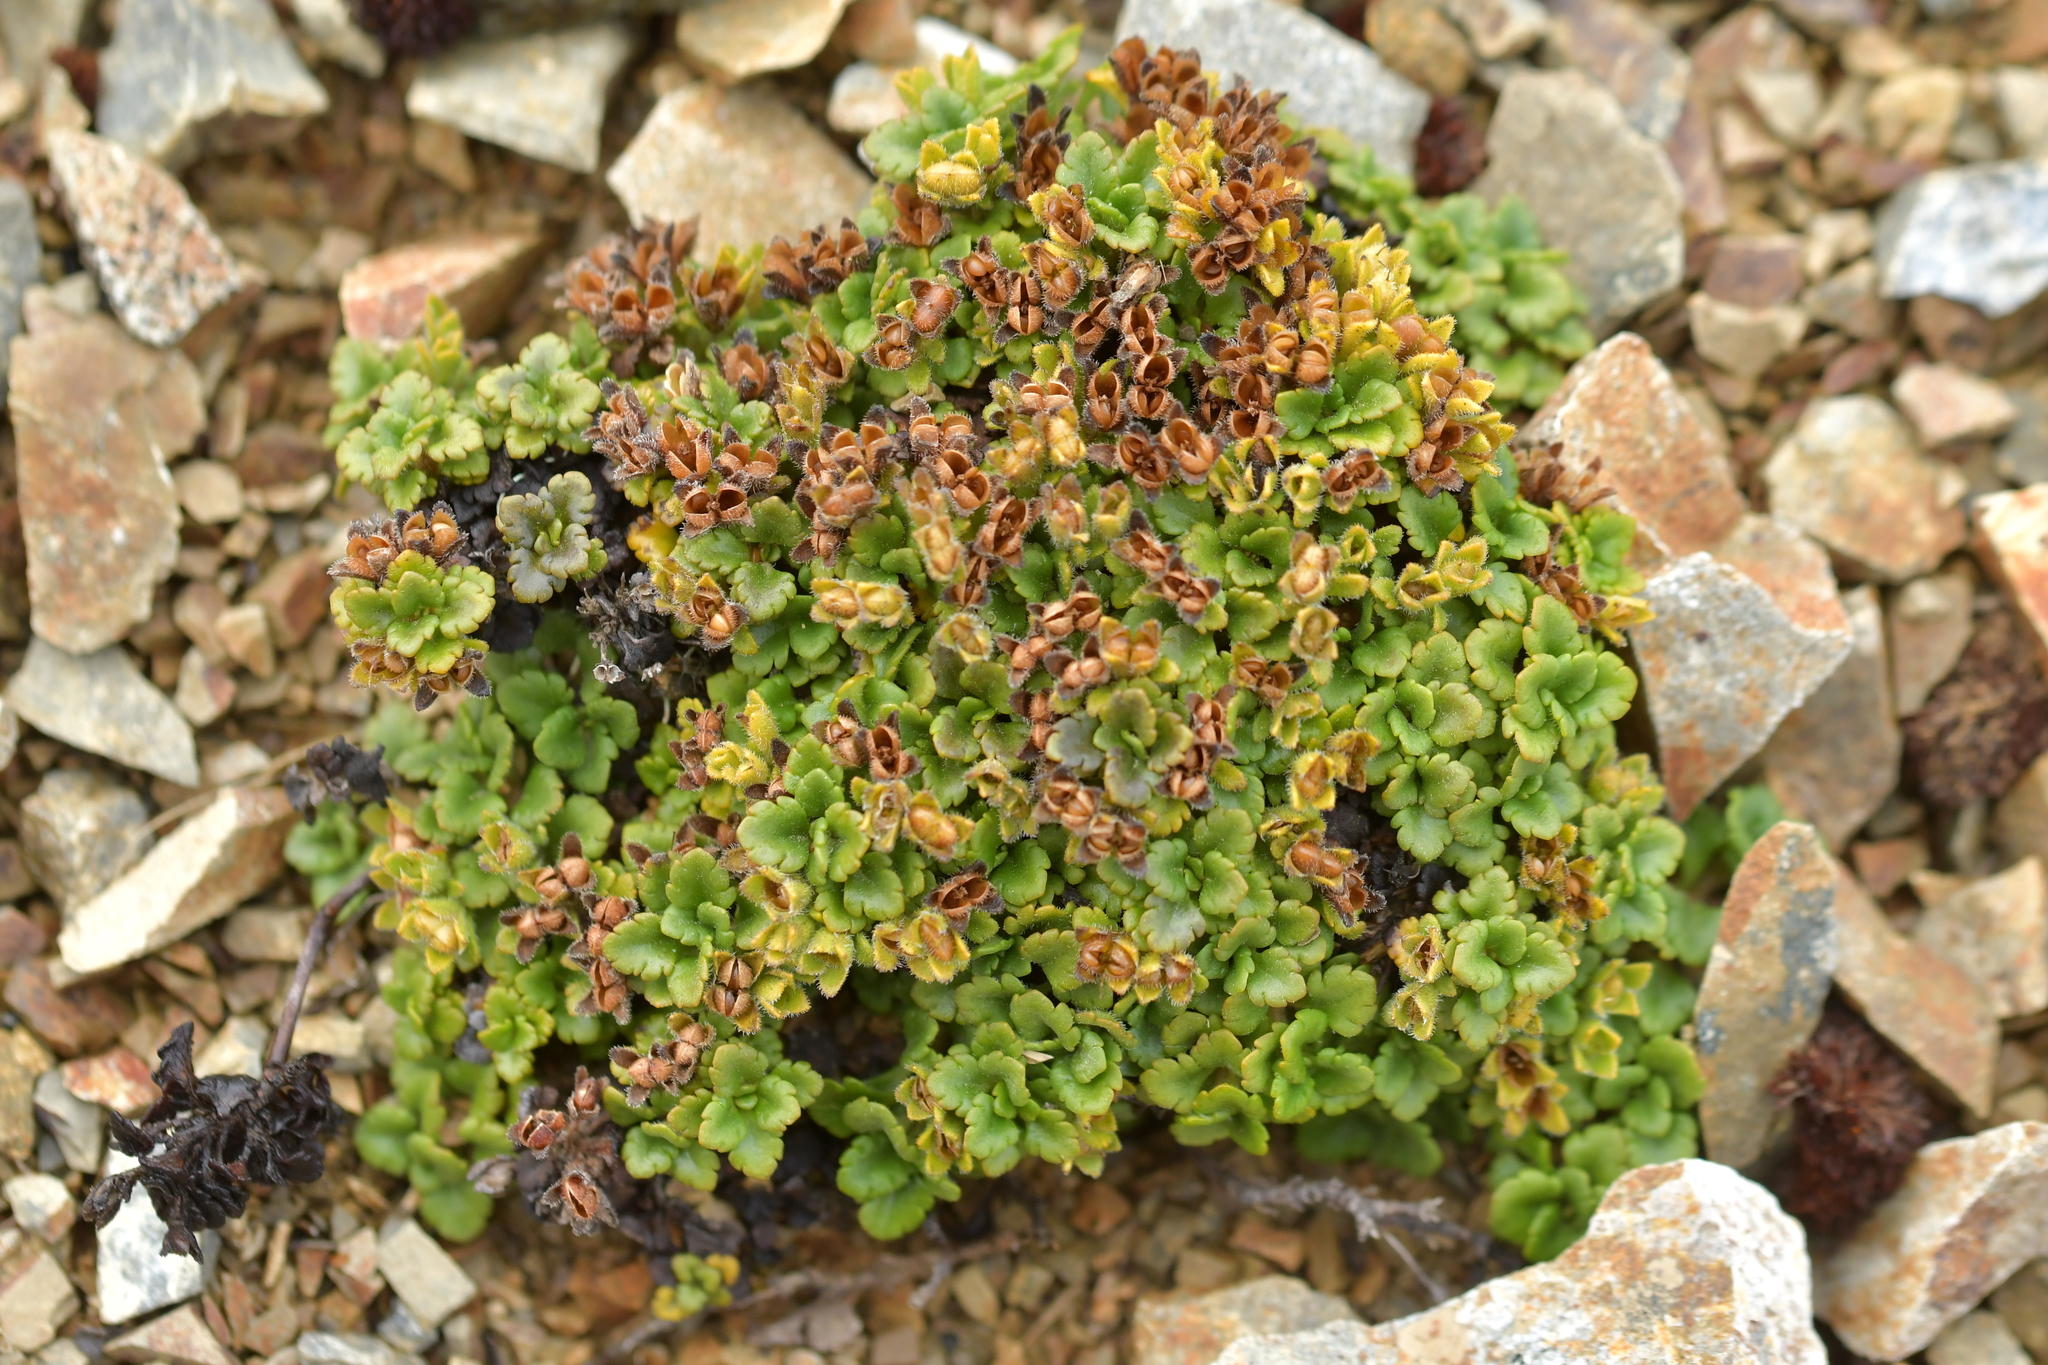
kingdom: Plantae
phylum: Tracheophyta
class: Magnoliopsida
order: Lamiales
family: Plantaginaceae
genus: Veronica
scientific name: Veronica spathulata
